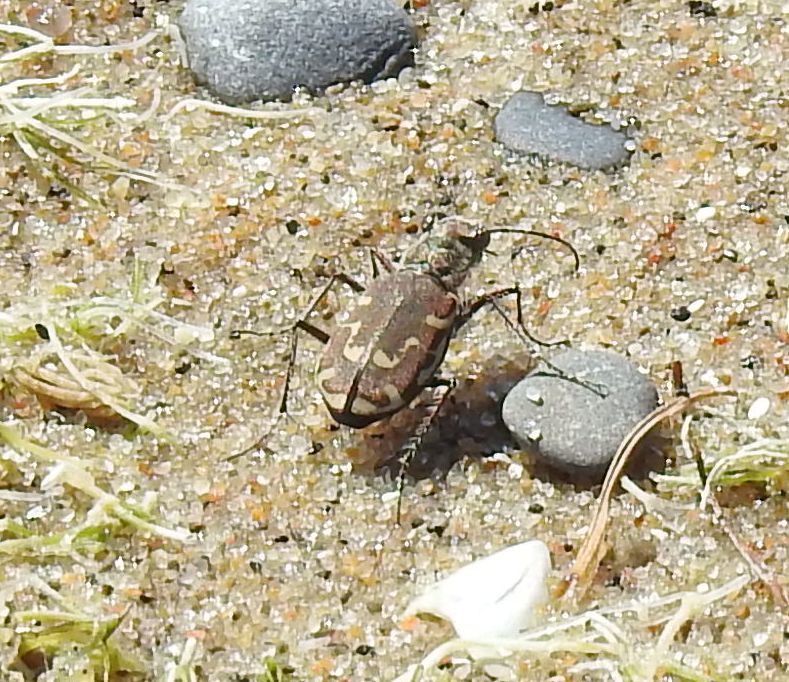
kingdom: Animalia
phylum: Arthropoda
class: Insecta
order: Coleoptera
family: Carabidae
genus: Cicindela
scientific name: Cicindela repanda
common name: Bronzed tiger beetle
